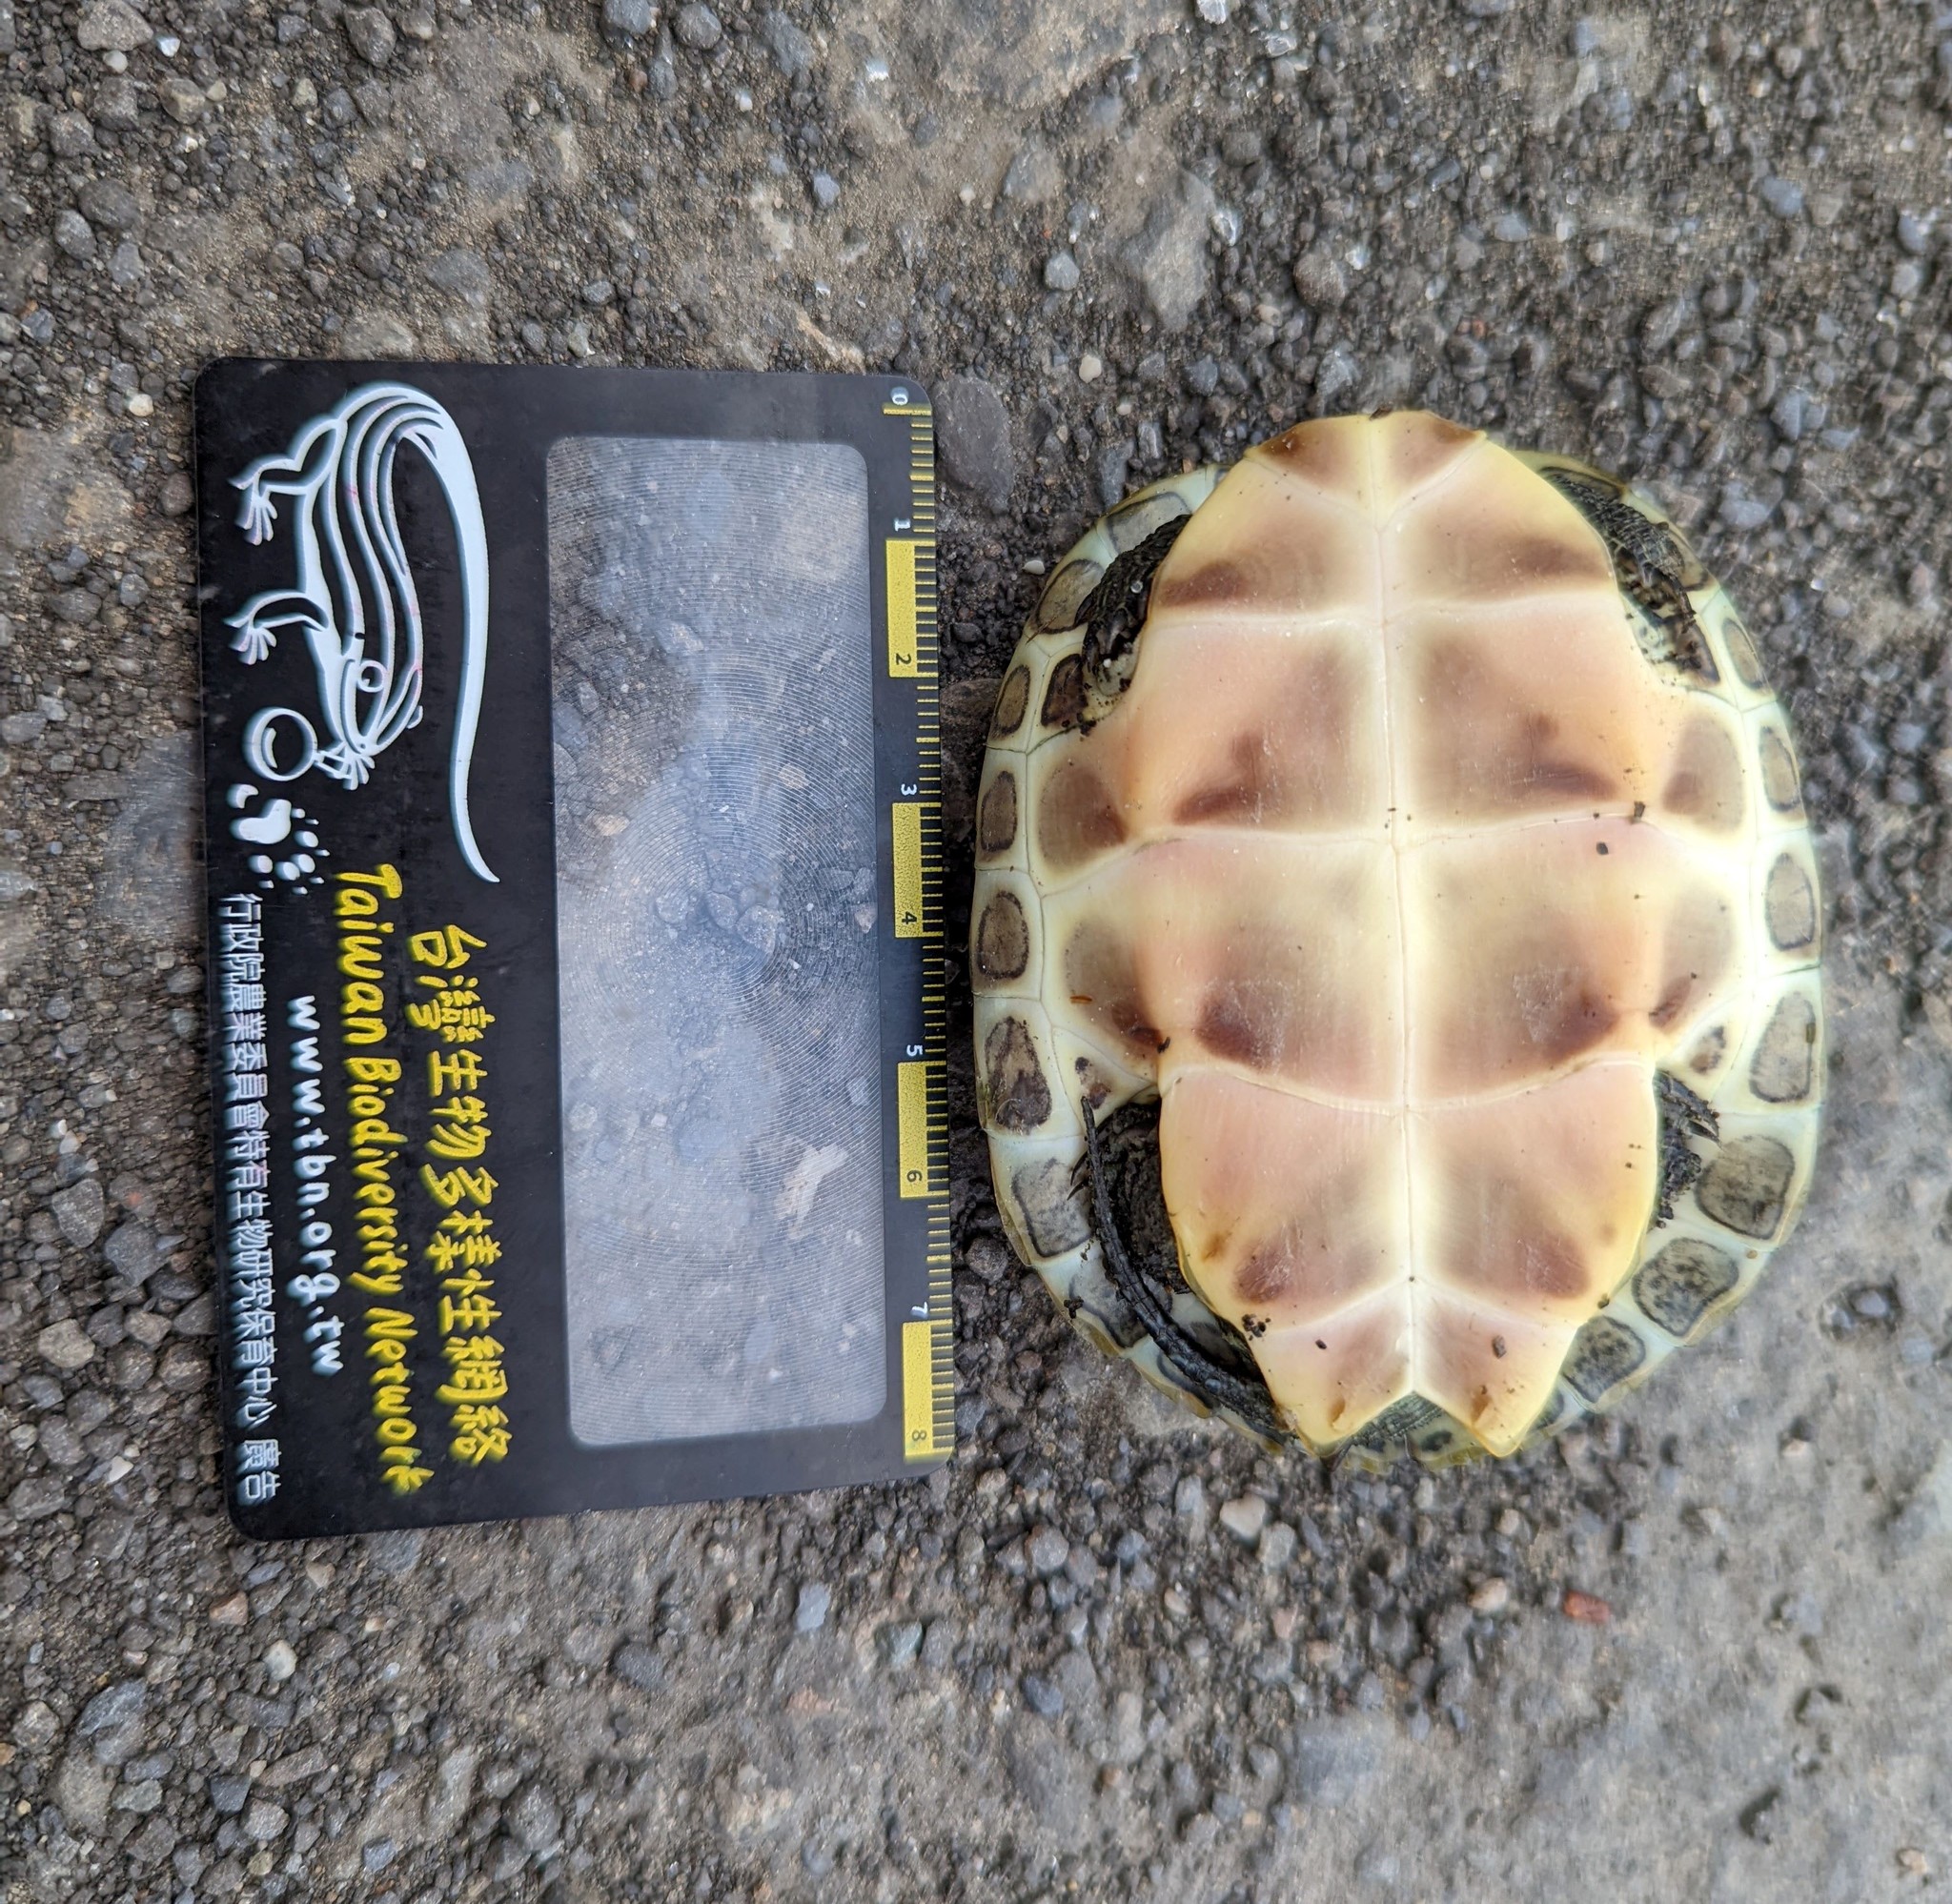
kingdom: Animalia
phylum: Chordata
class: Testudines
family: Geoemydidae
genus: Mauremys
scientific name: Mauremys sinensis
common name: Chinese stripe-necked turtle
